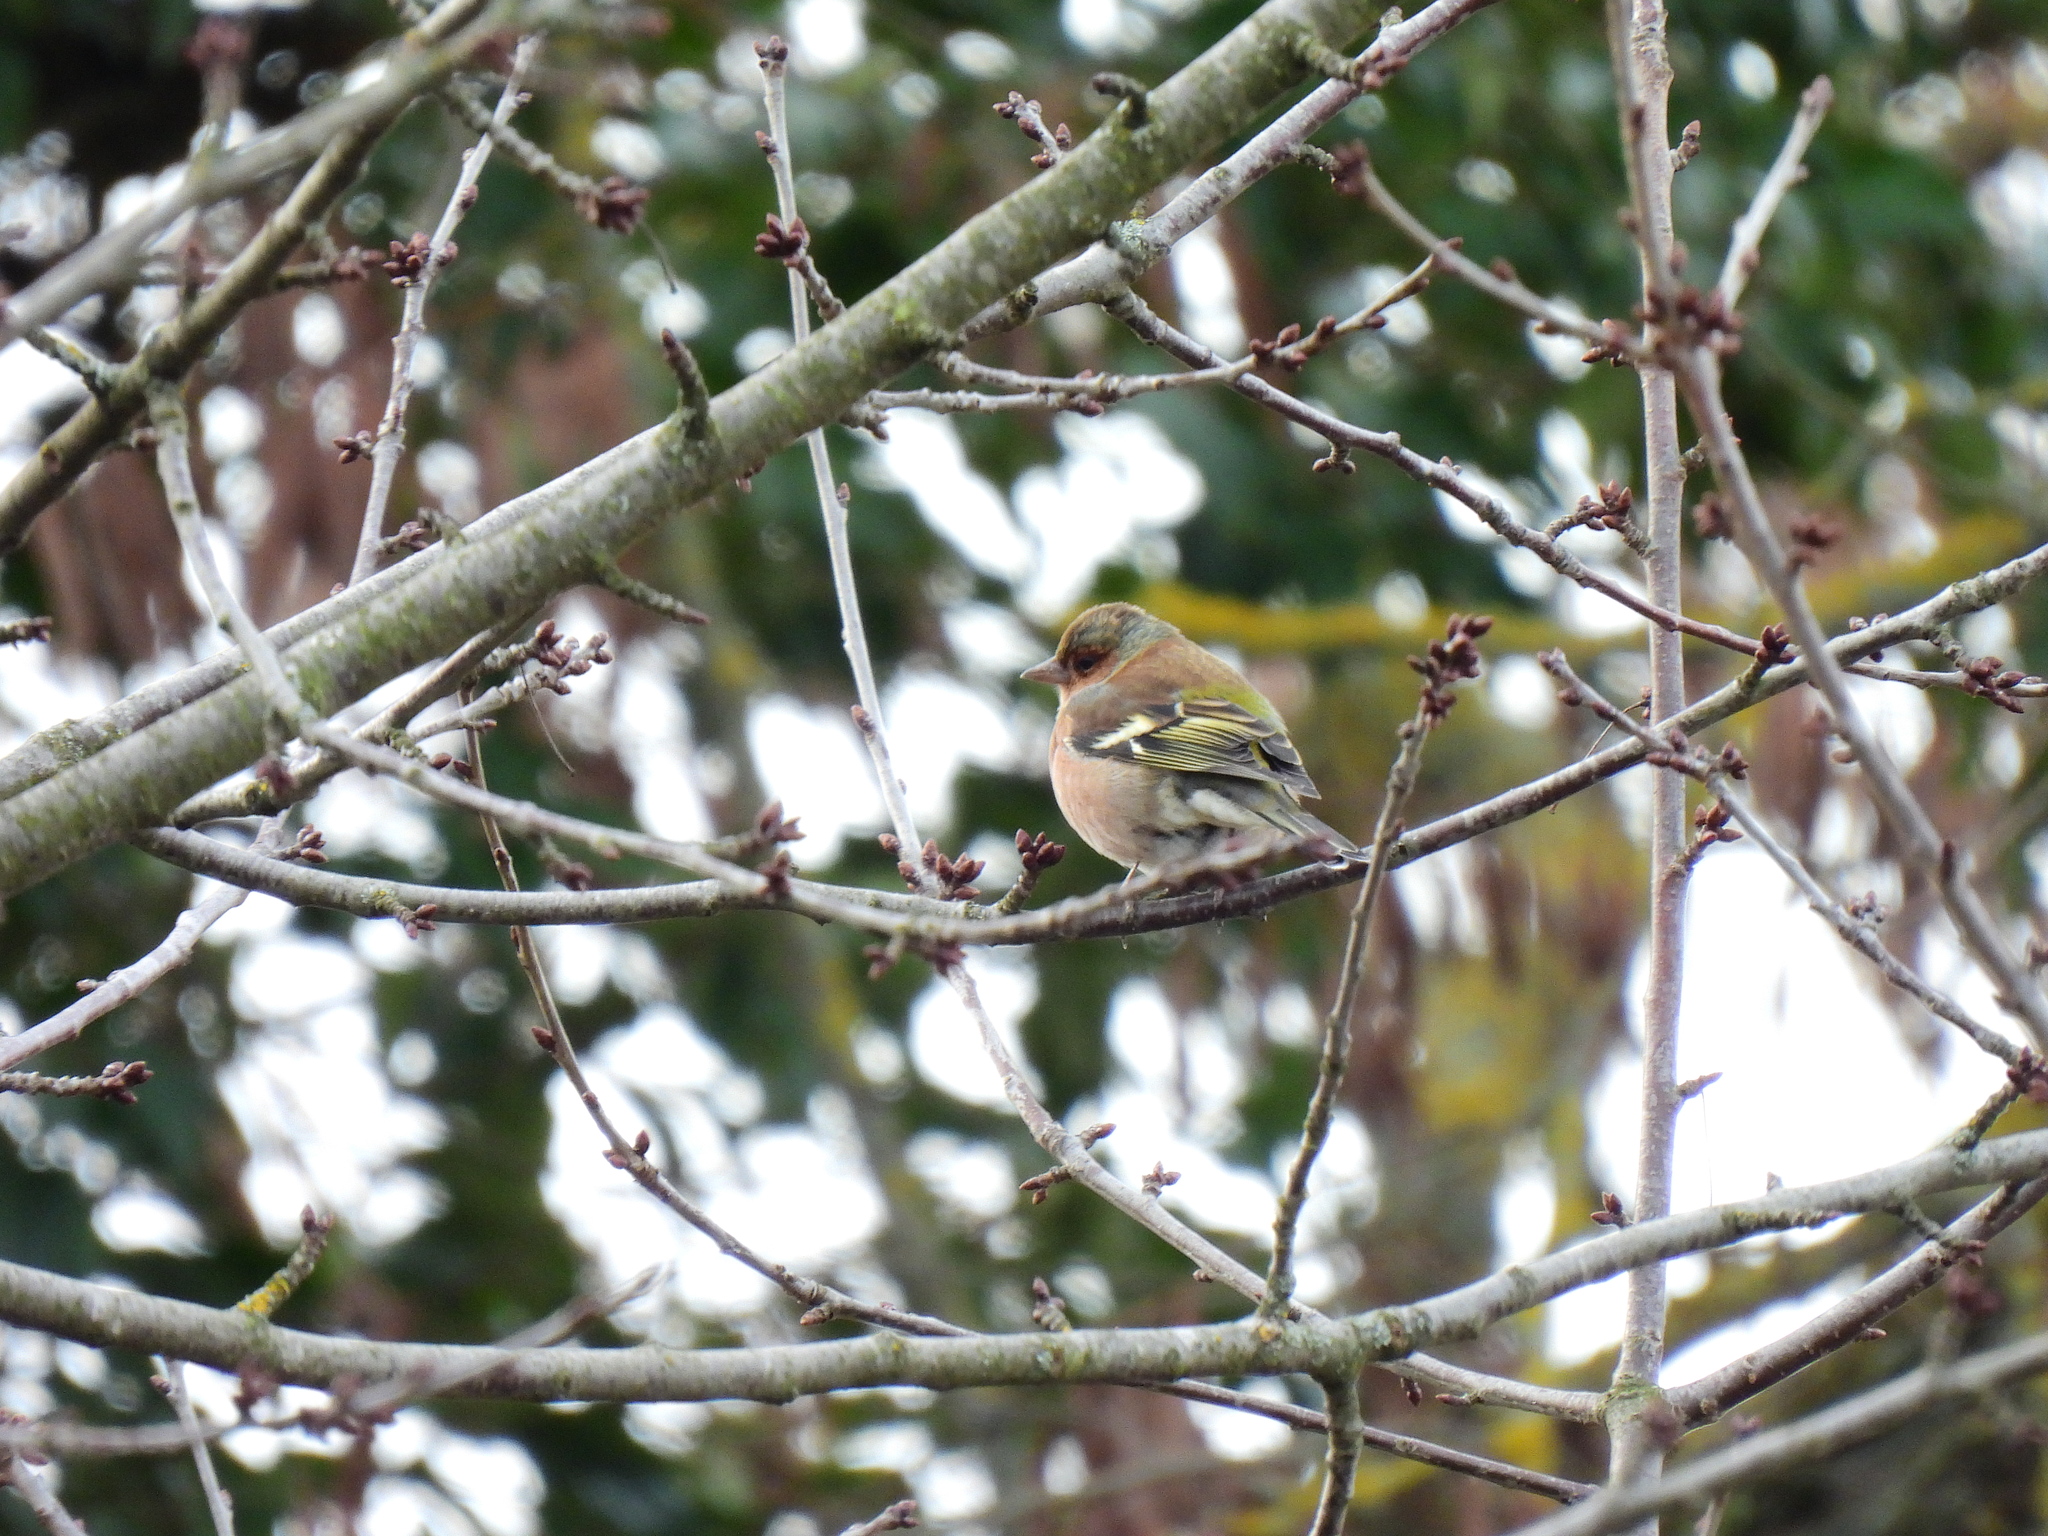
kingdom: Animalia
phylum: Chordata
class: Aves
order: Passeriformes
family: Fringillidae
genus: Fringilla
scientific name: Fringilla coelebs
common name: Common chaffinch
